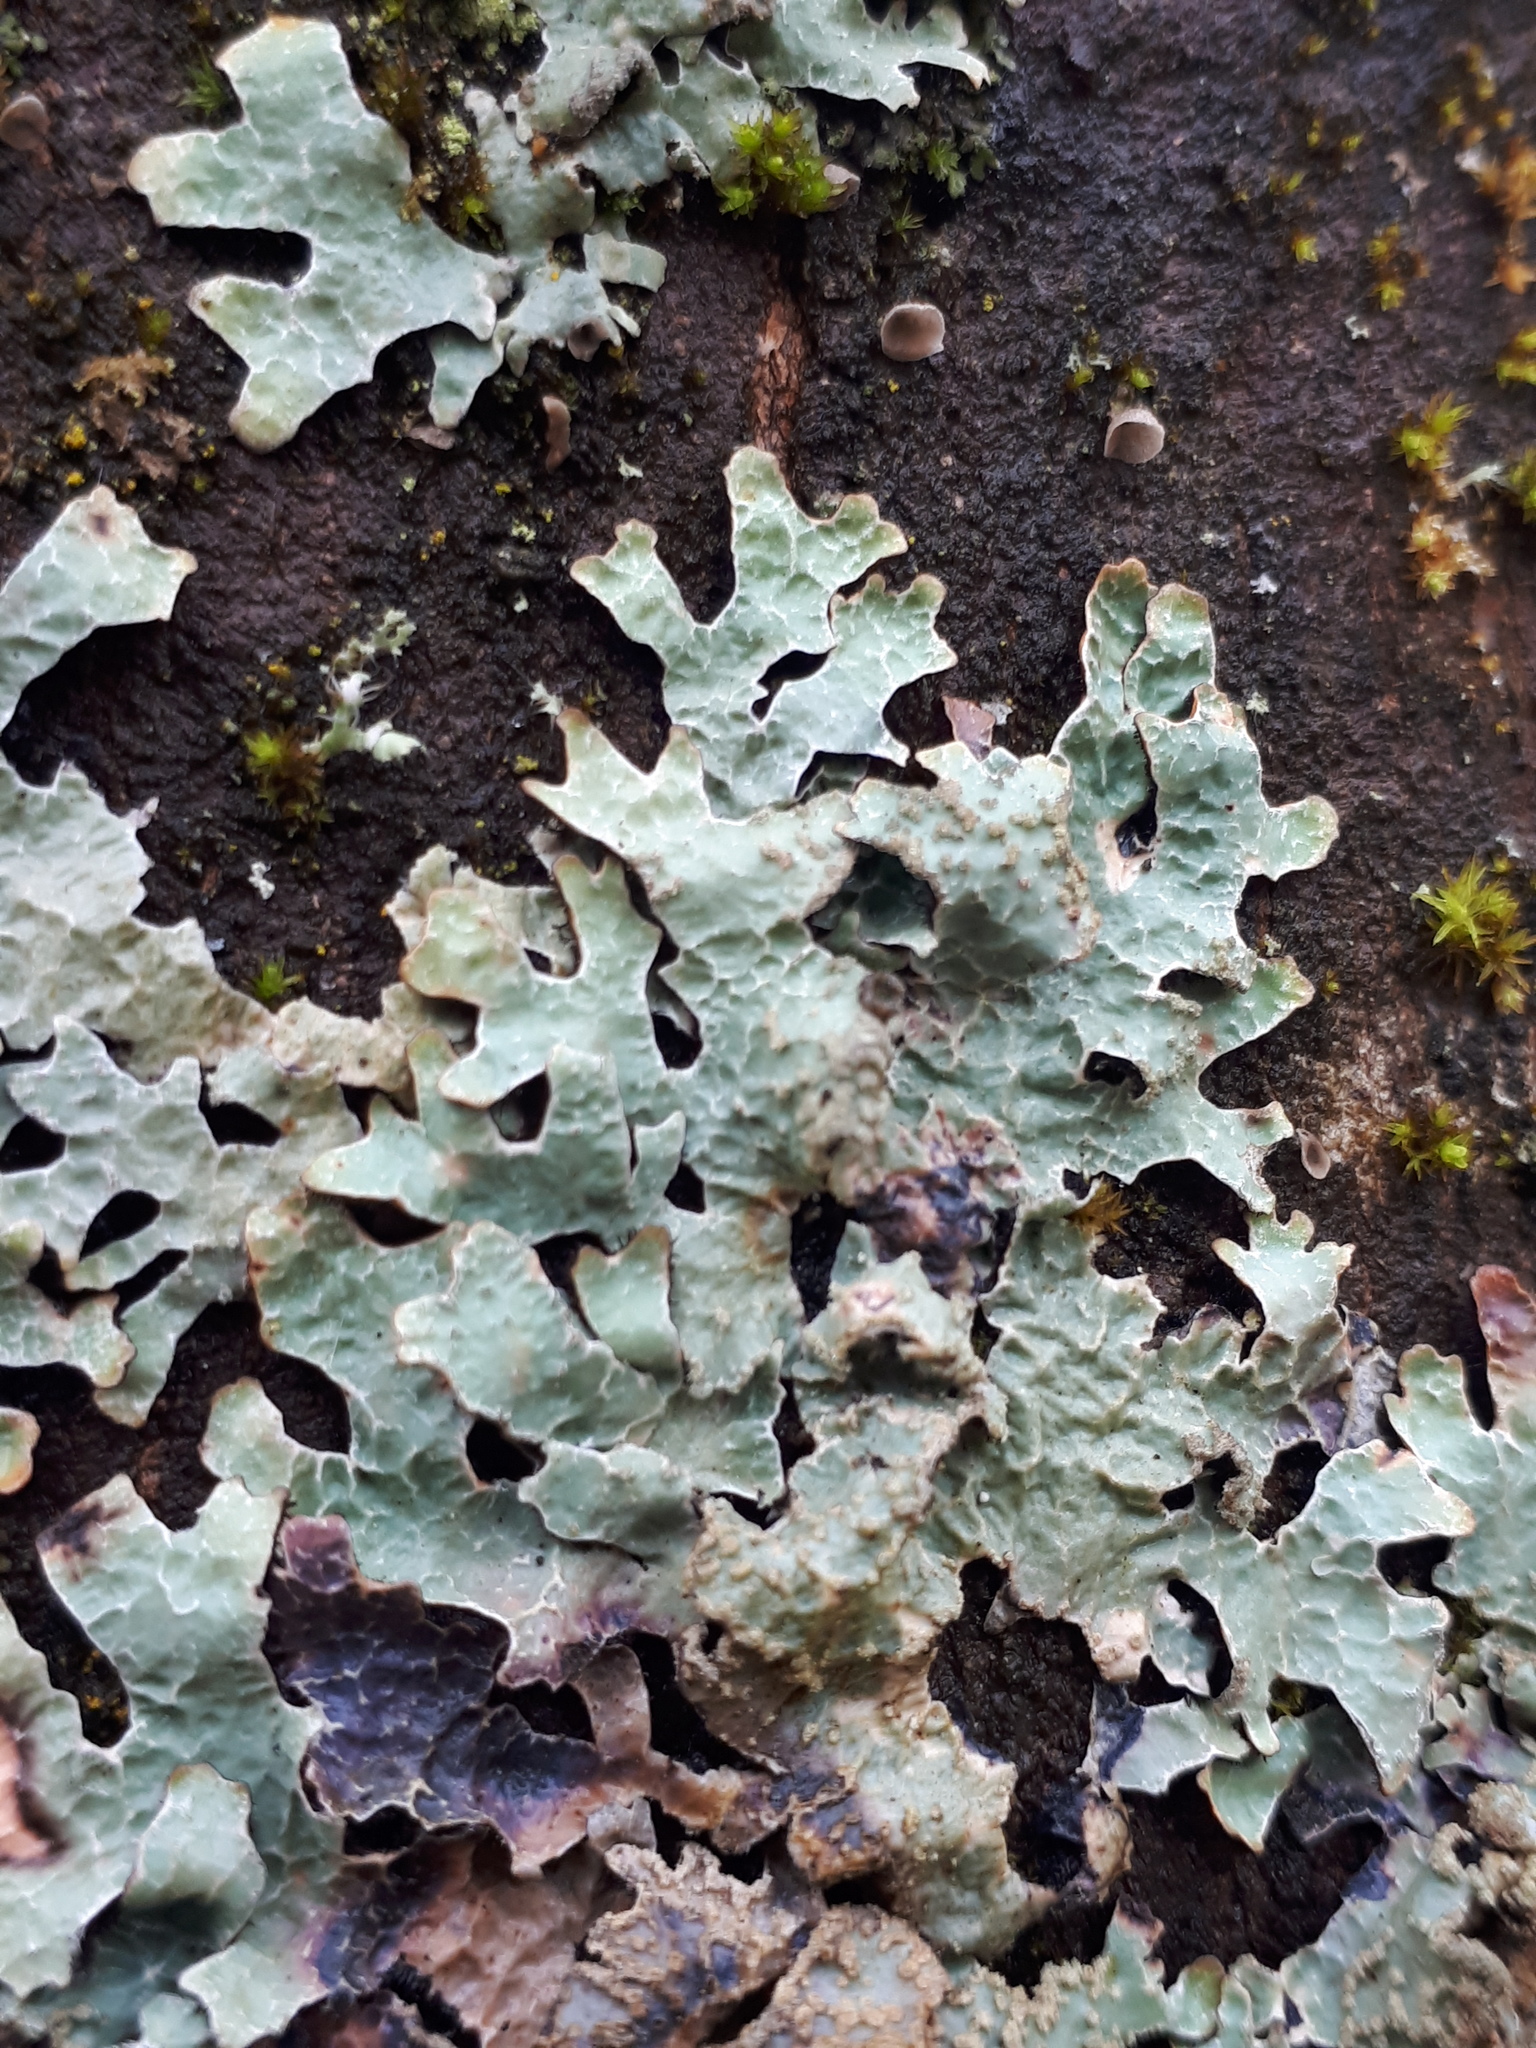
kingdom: Fungi
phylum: Ascomycota
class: Lecanoromycetes
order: Lecanorales
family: Parmeliaceae
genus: Parmelia
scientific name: Parmelia sulcata
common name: Netted shield lichen
